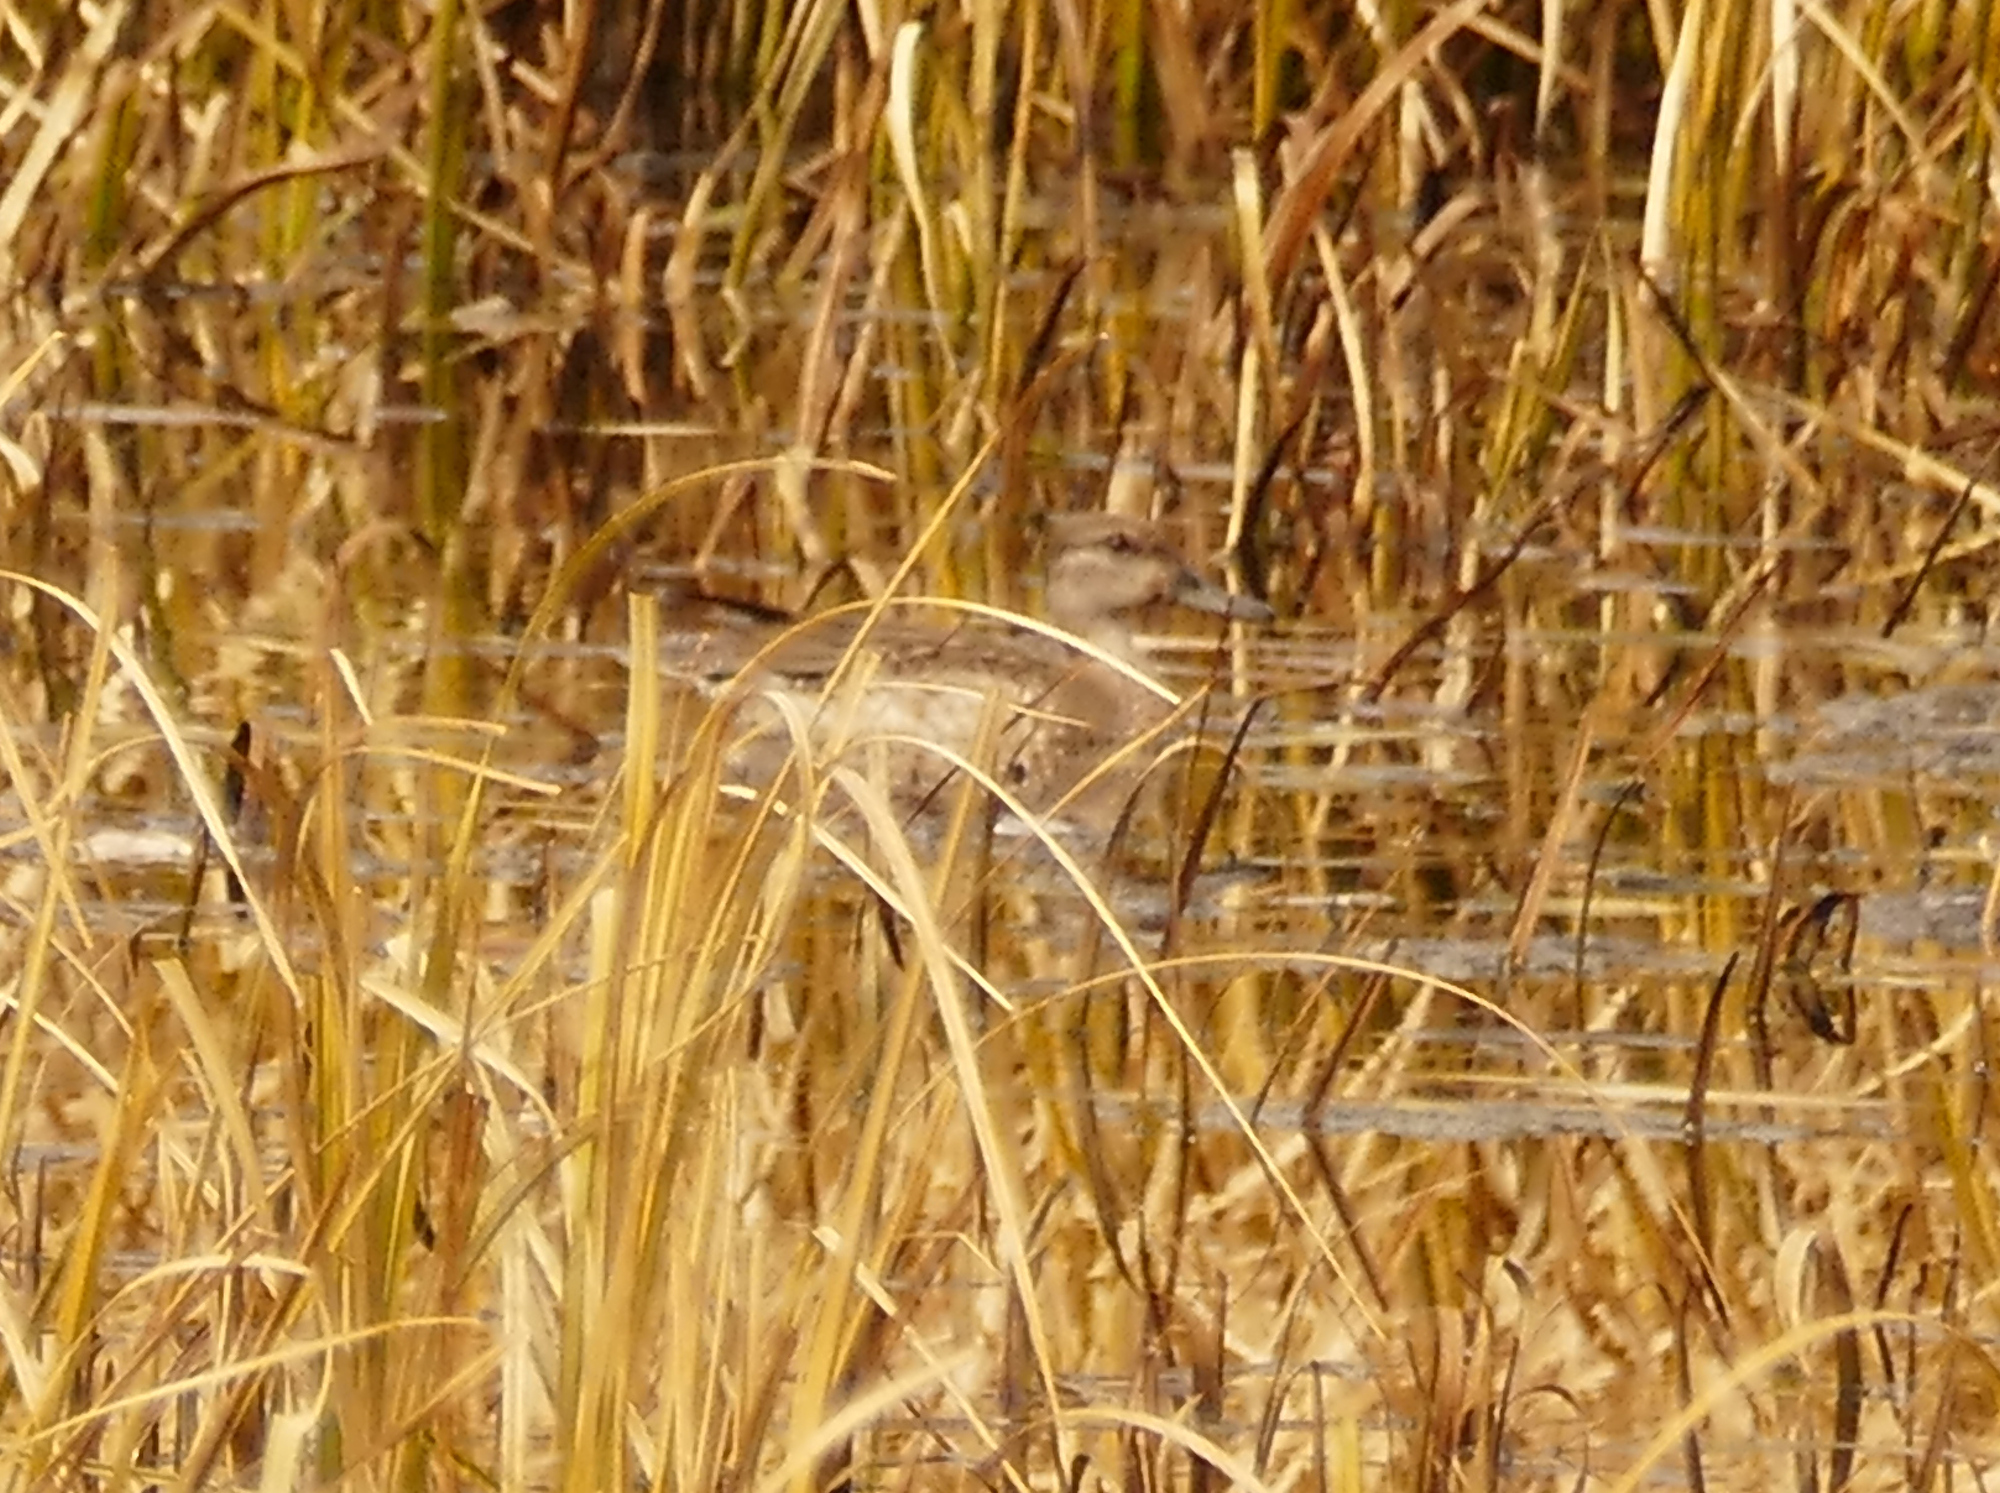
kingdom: Animalia
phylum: Chordata
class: Aves
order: Anseriformes
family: Anatidae
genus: Anas
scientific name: Anas crecca
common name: Eurasian teal
